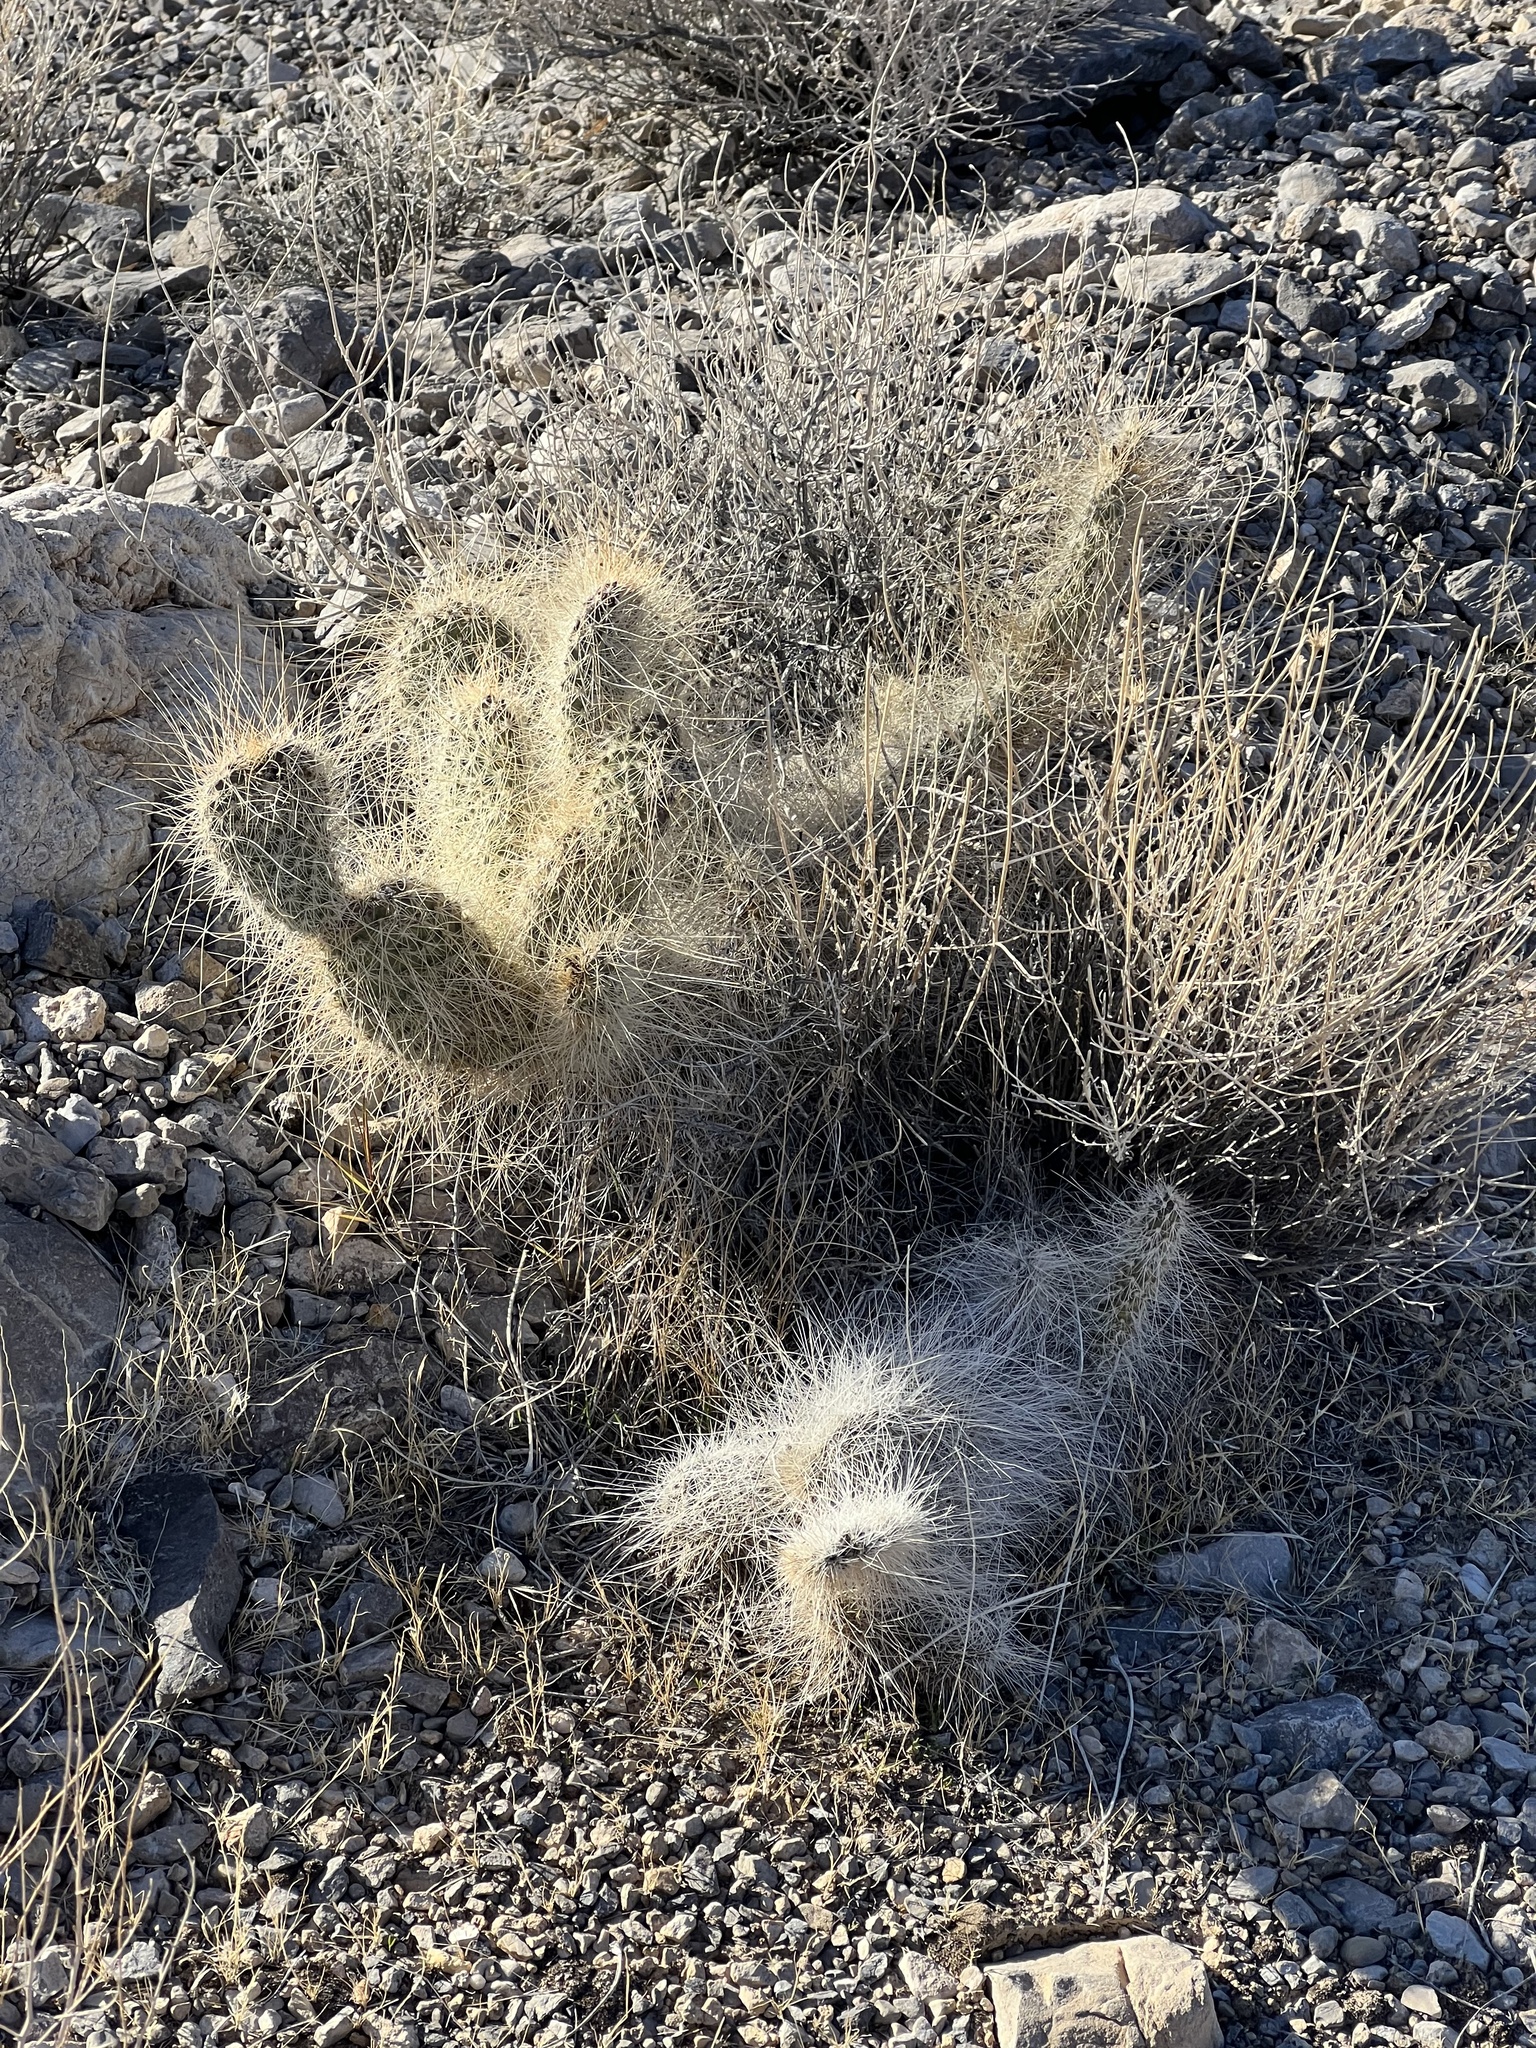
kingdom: Plantae
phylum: Tracheophyta
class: Magnoliopsida
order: Caryophyllales
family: Cactaceae
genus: Opuntia
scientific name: Opuntia polyacantha
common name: Plains prickly-pear
